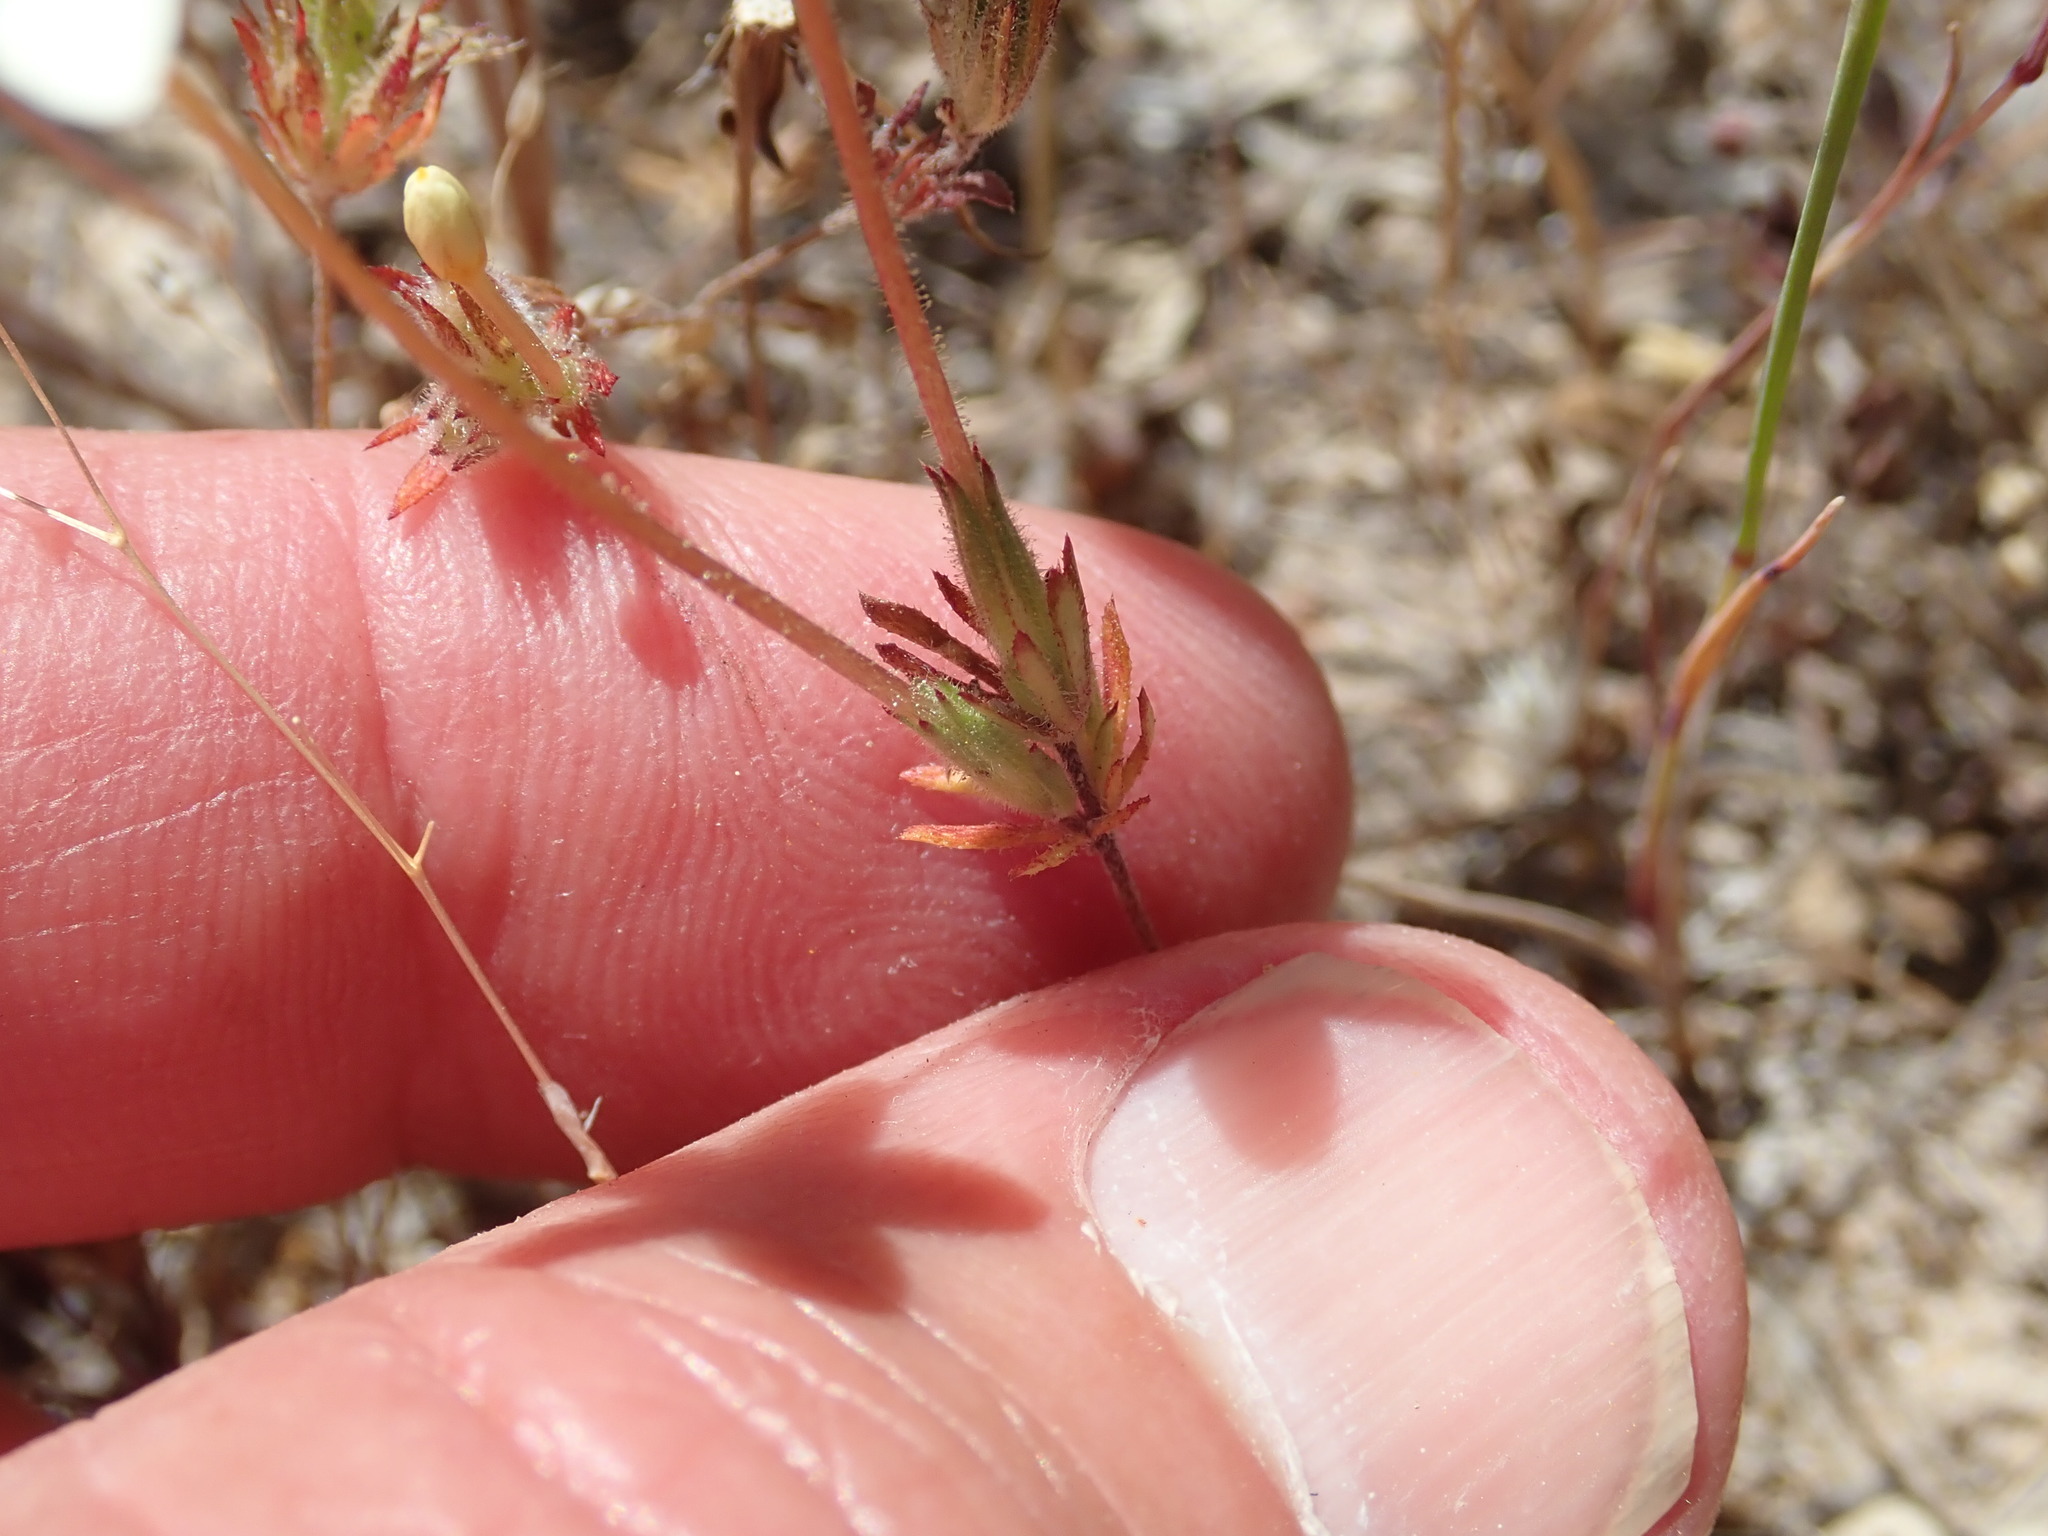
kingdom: Plantae
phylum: Tracheophyta
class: Magnoliopsida
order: Ericales
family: Polemoniaceae
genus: Leptosiphon
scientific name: Leptosiphon parviflorus
